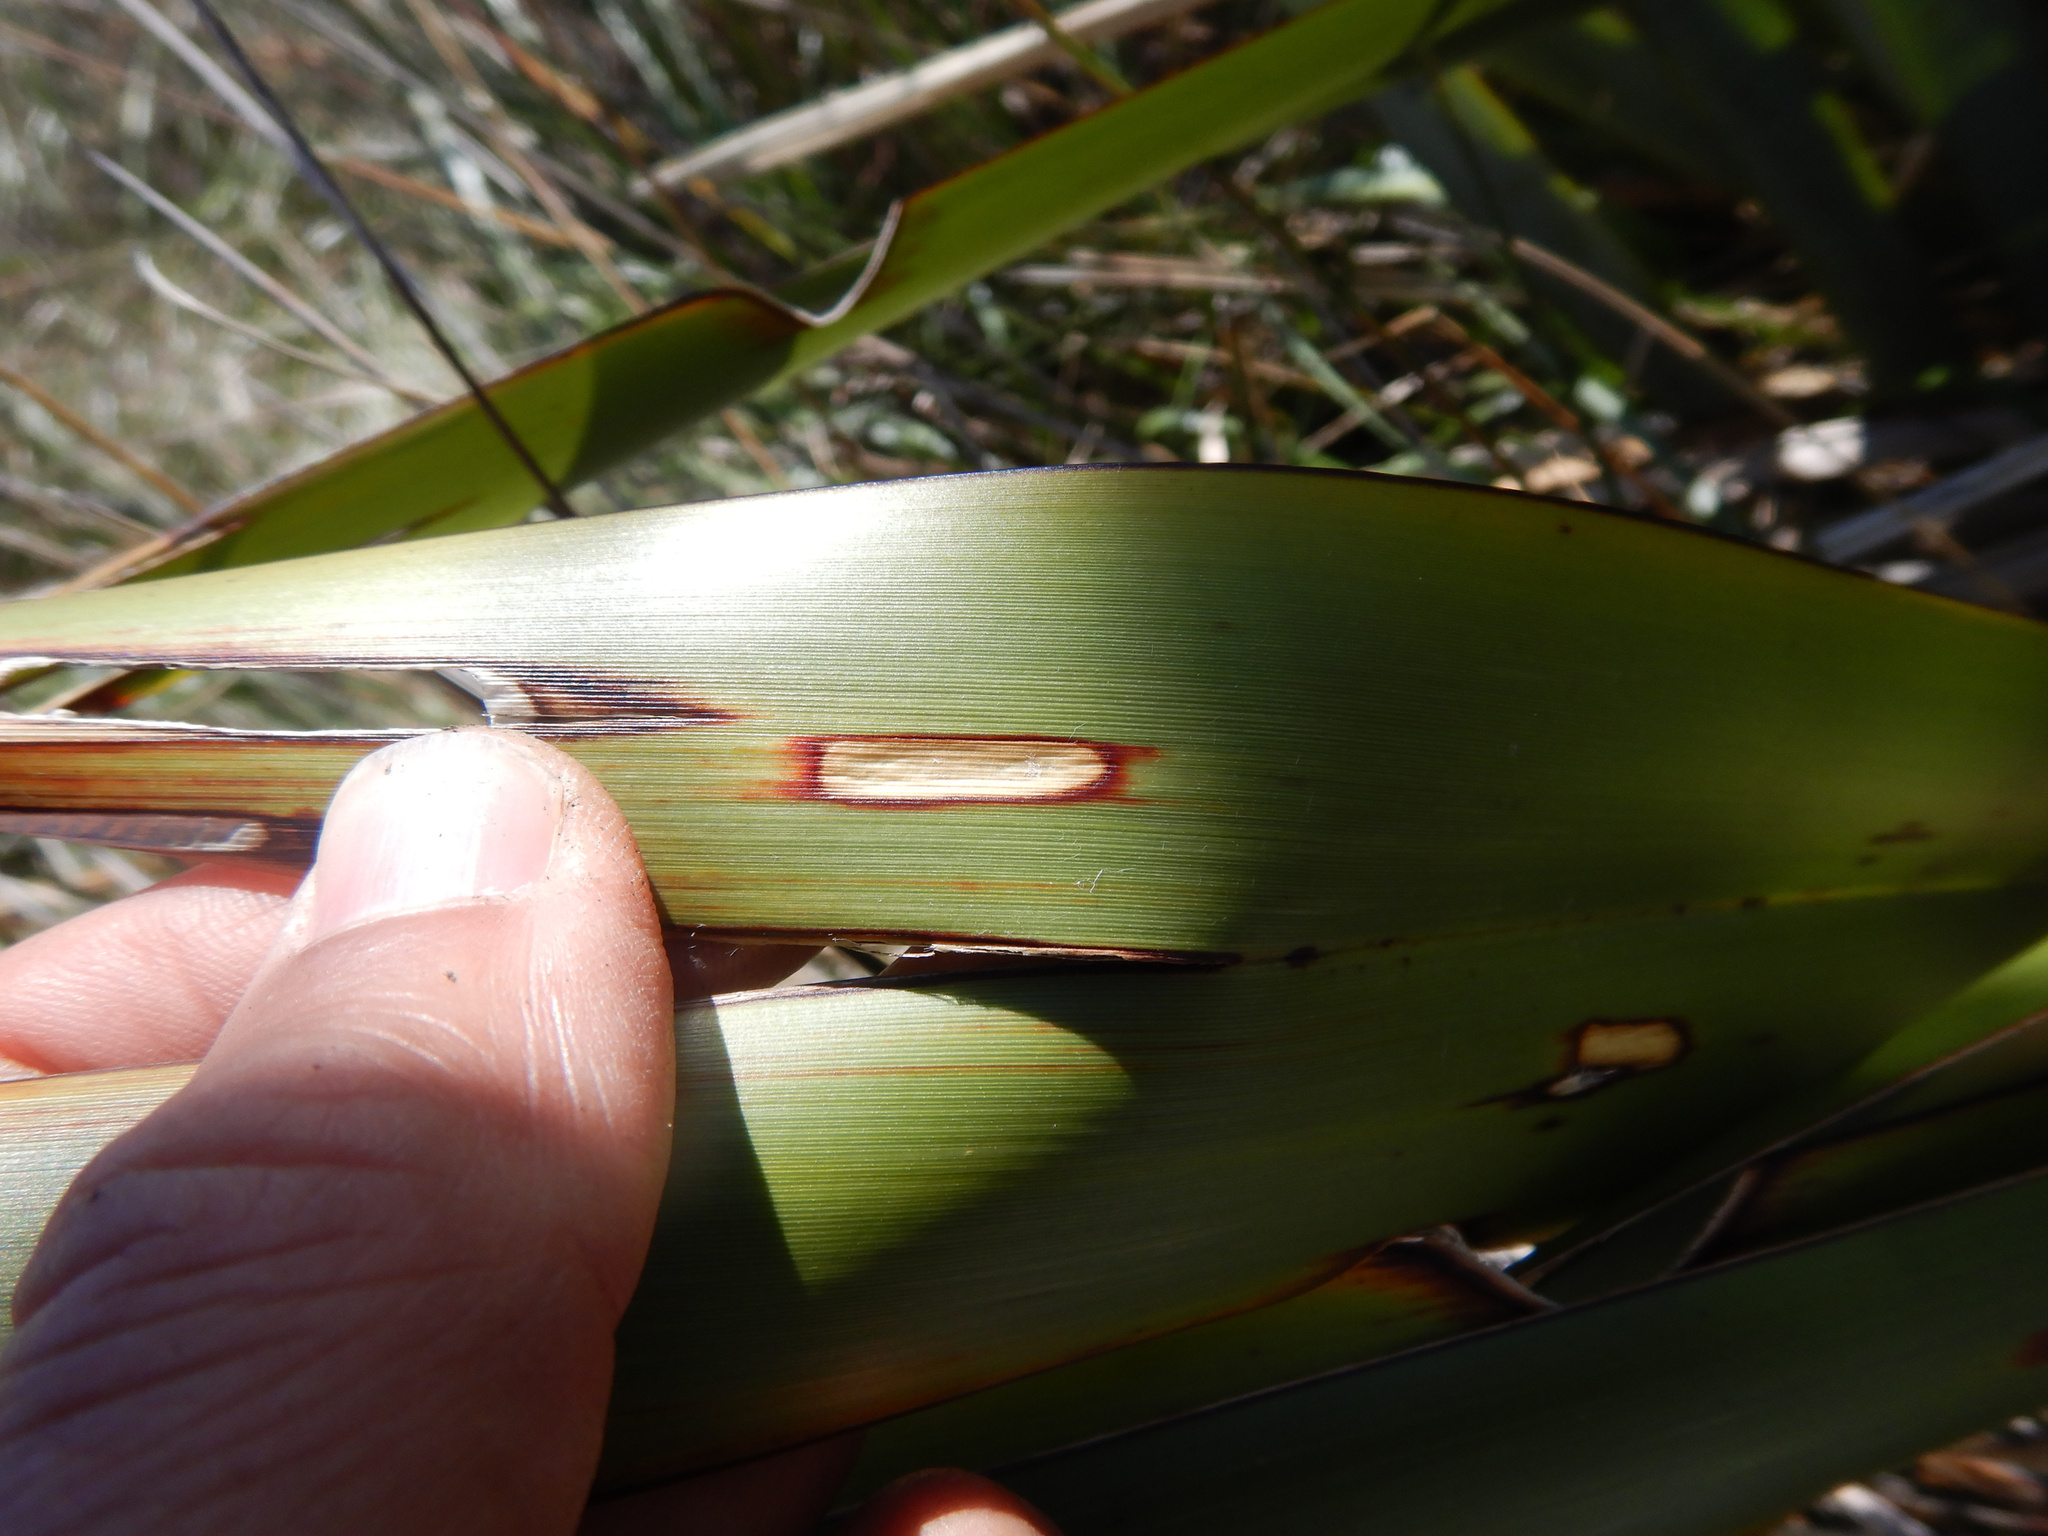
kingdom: Animalia
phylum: Arthropoda
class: Insecta
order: Lepidoptera
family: Geometridae
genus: Orthoclydon
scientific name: Orthoclydon praefectata
